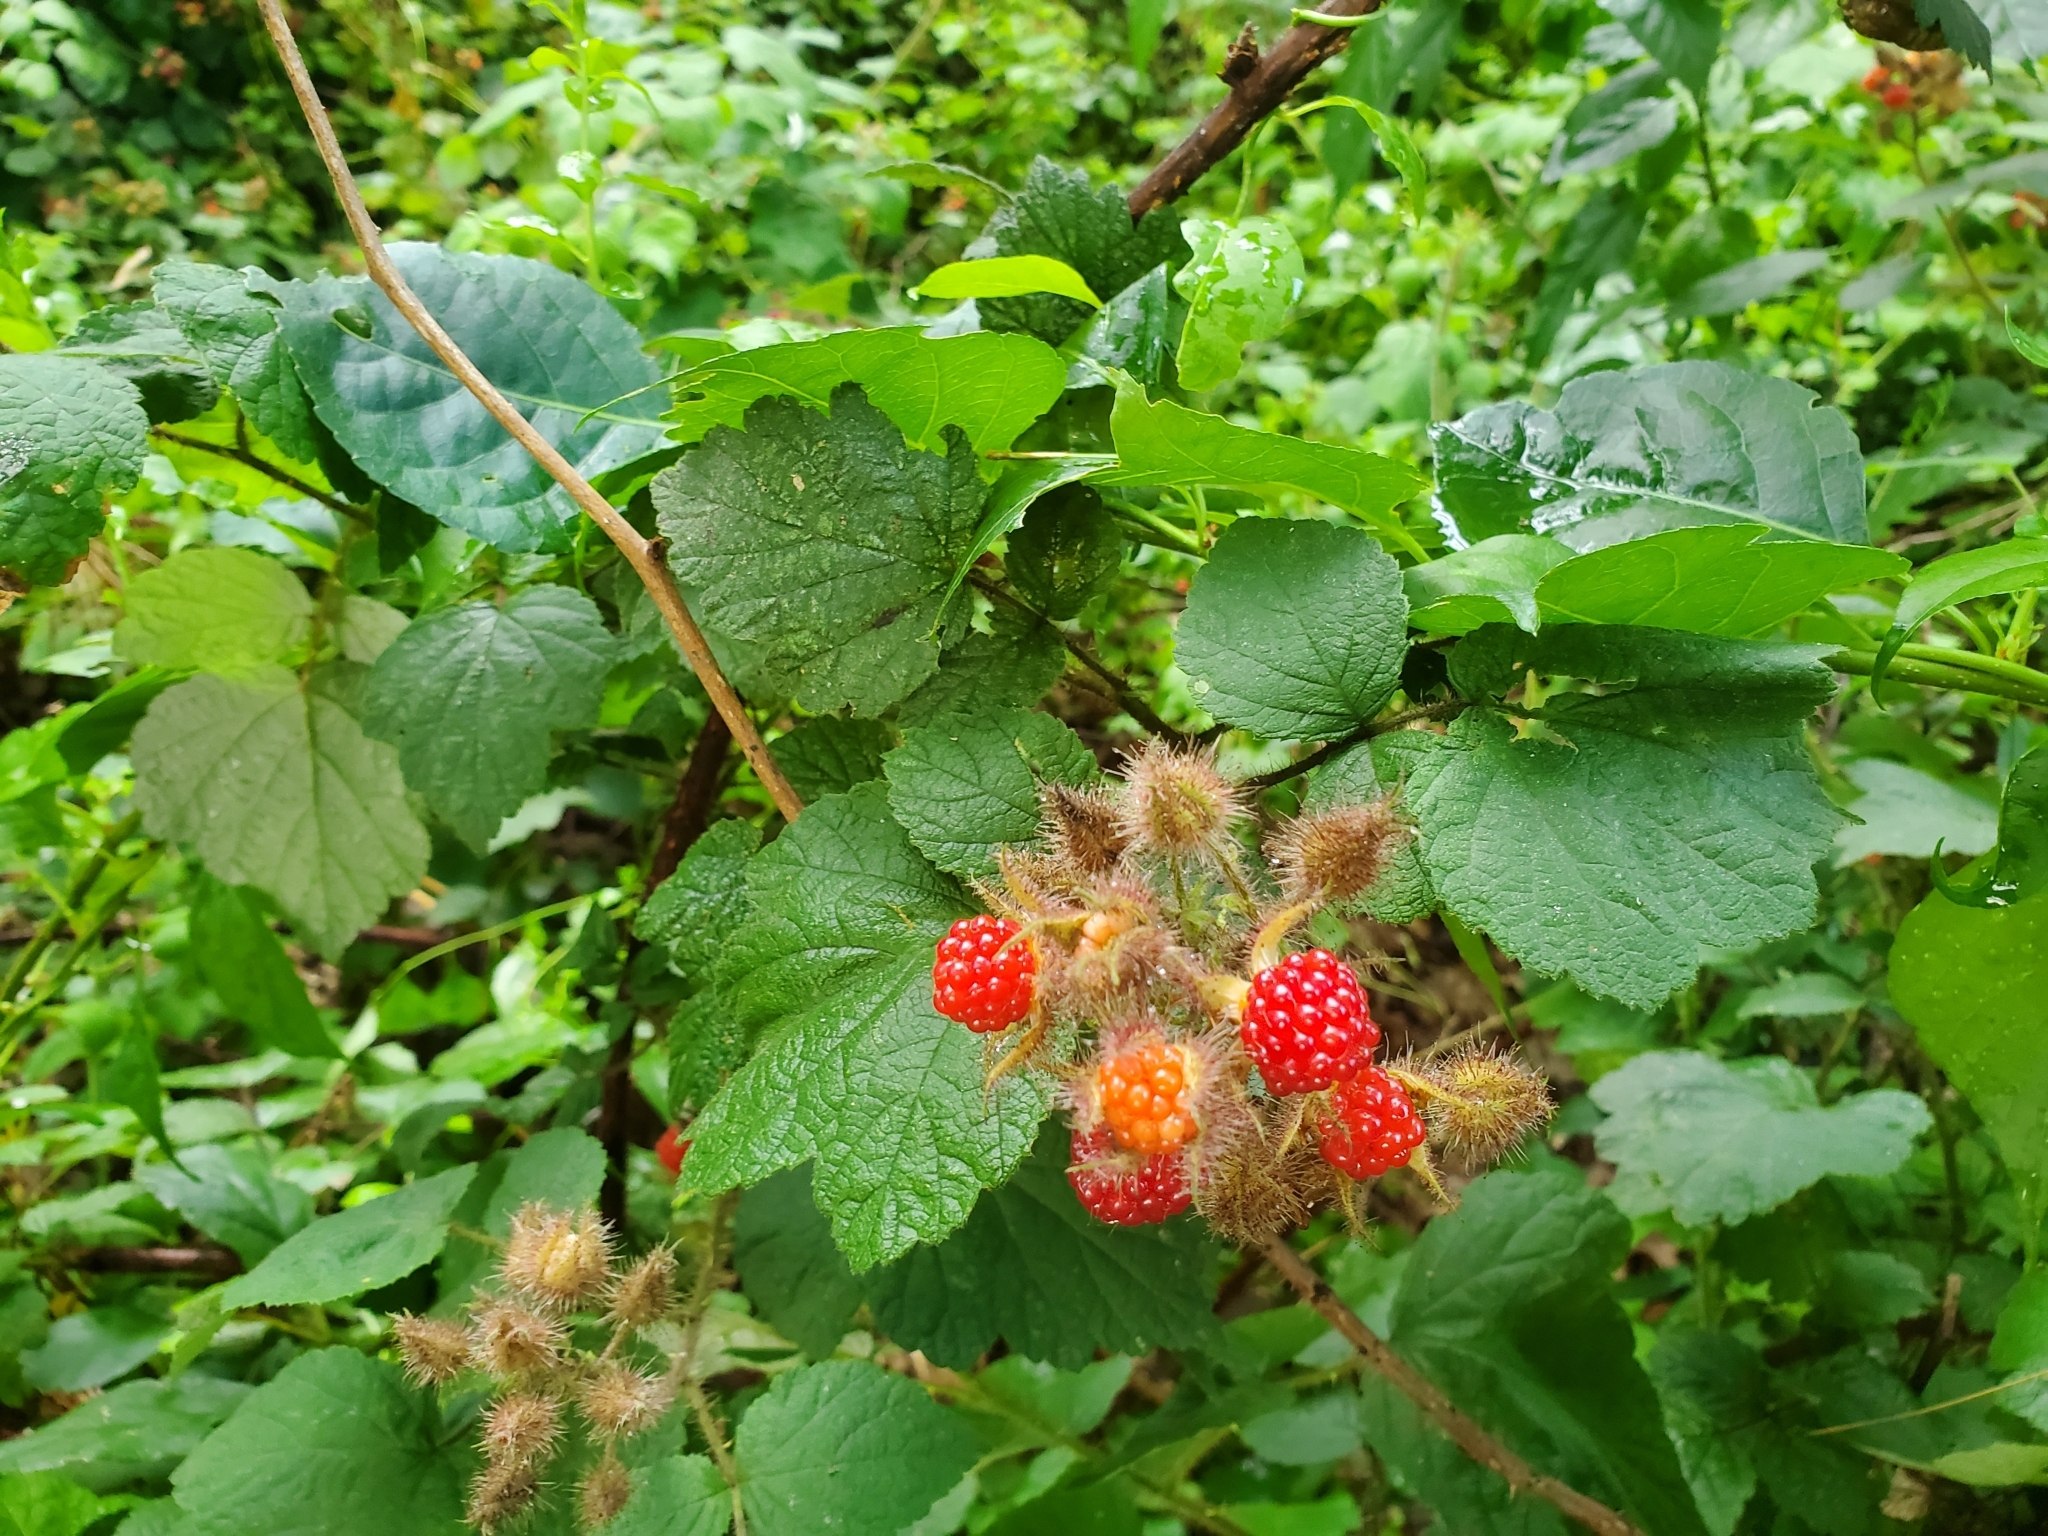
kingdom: Plantae
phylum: Tracheophyta
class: Magnoliopsida
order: Rosales
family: Rosaceae
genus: Rubus
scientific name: Rubus phoenicolasius
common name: Japanese wineberry
